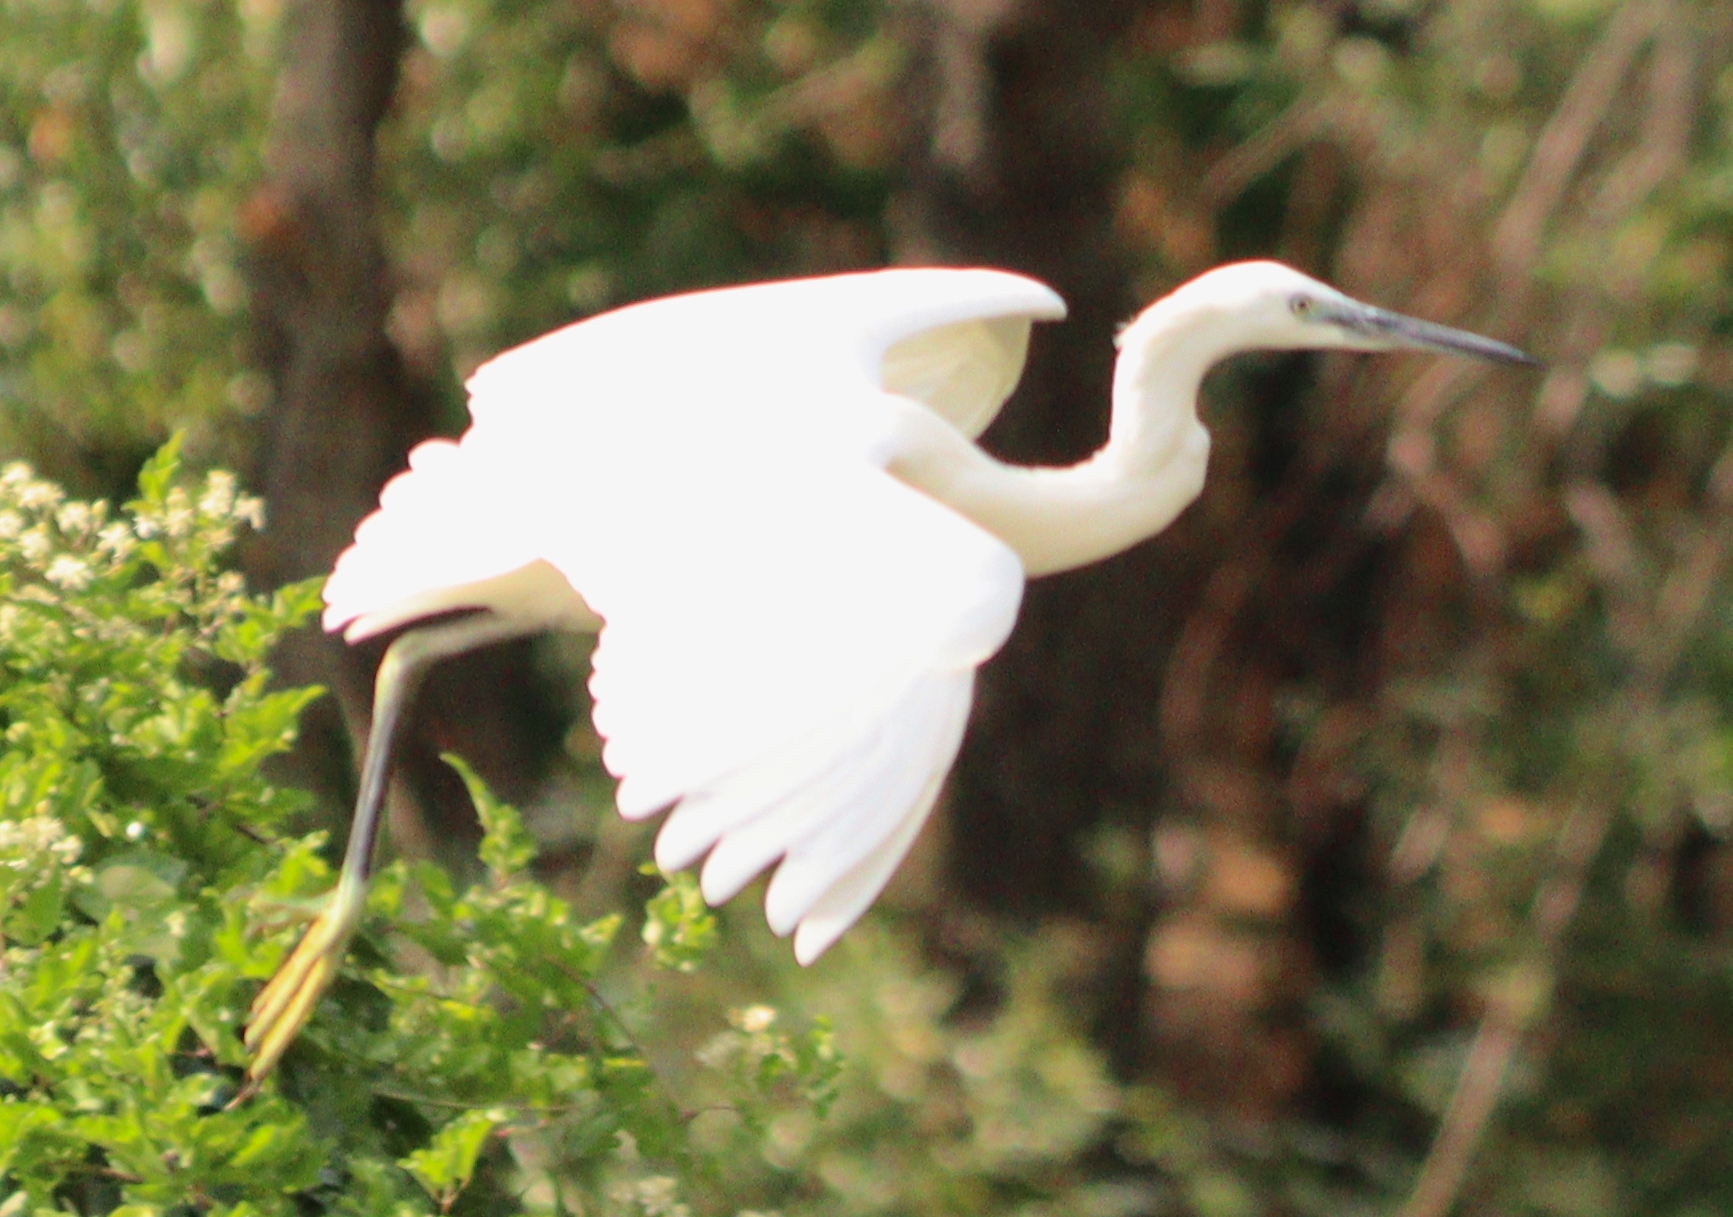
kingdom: Animalia
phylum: Chordata
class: Aves
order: Pelecaniformes
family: Ardeidae
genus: Egretta
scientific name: Egretta garzetta
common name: Little egret
